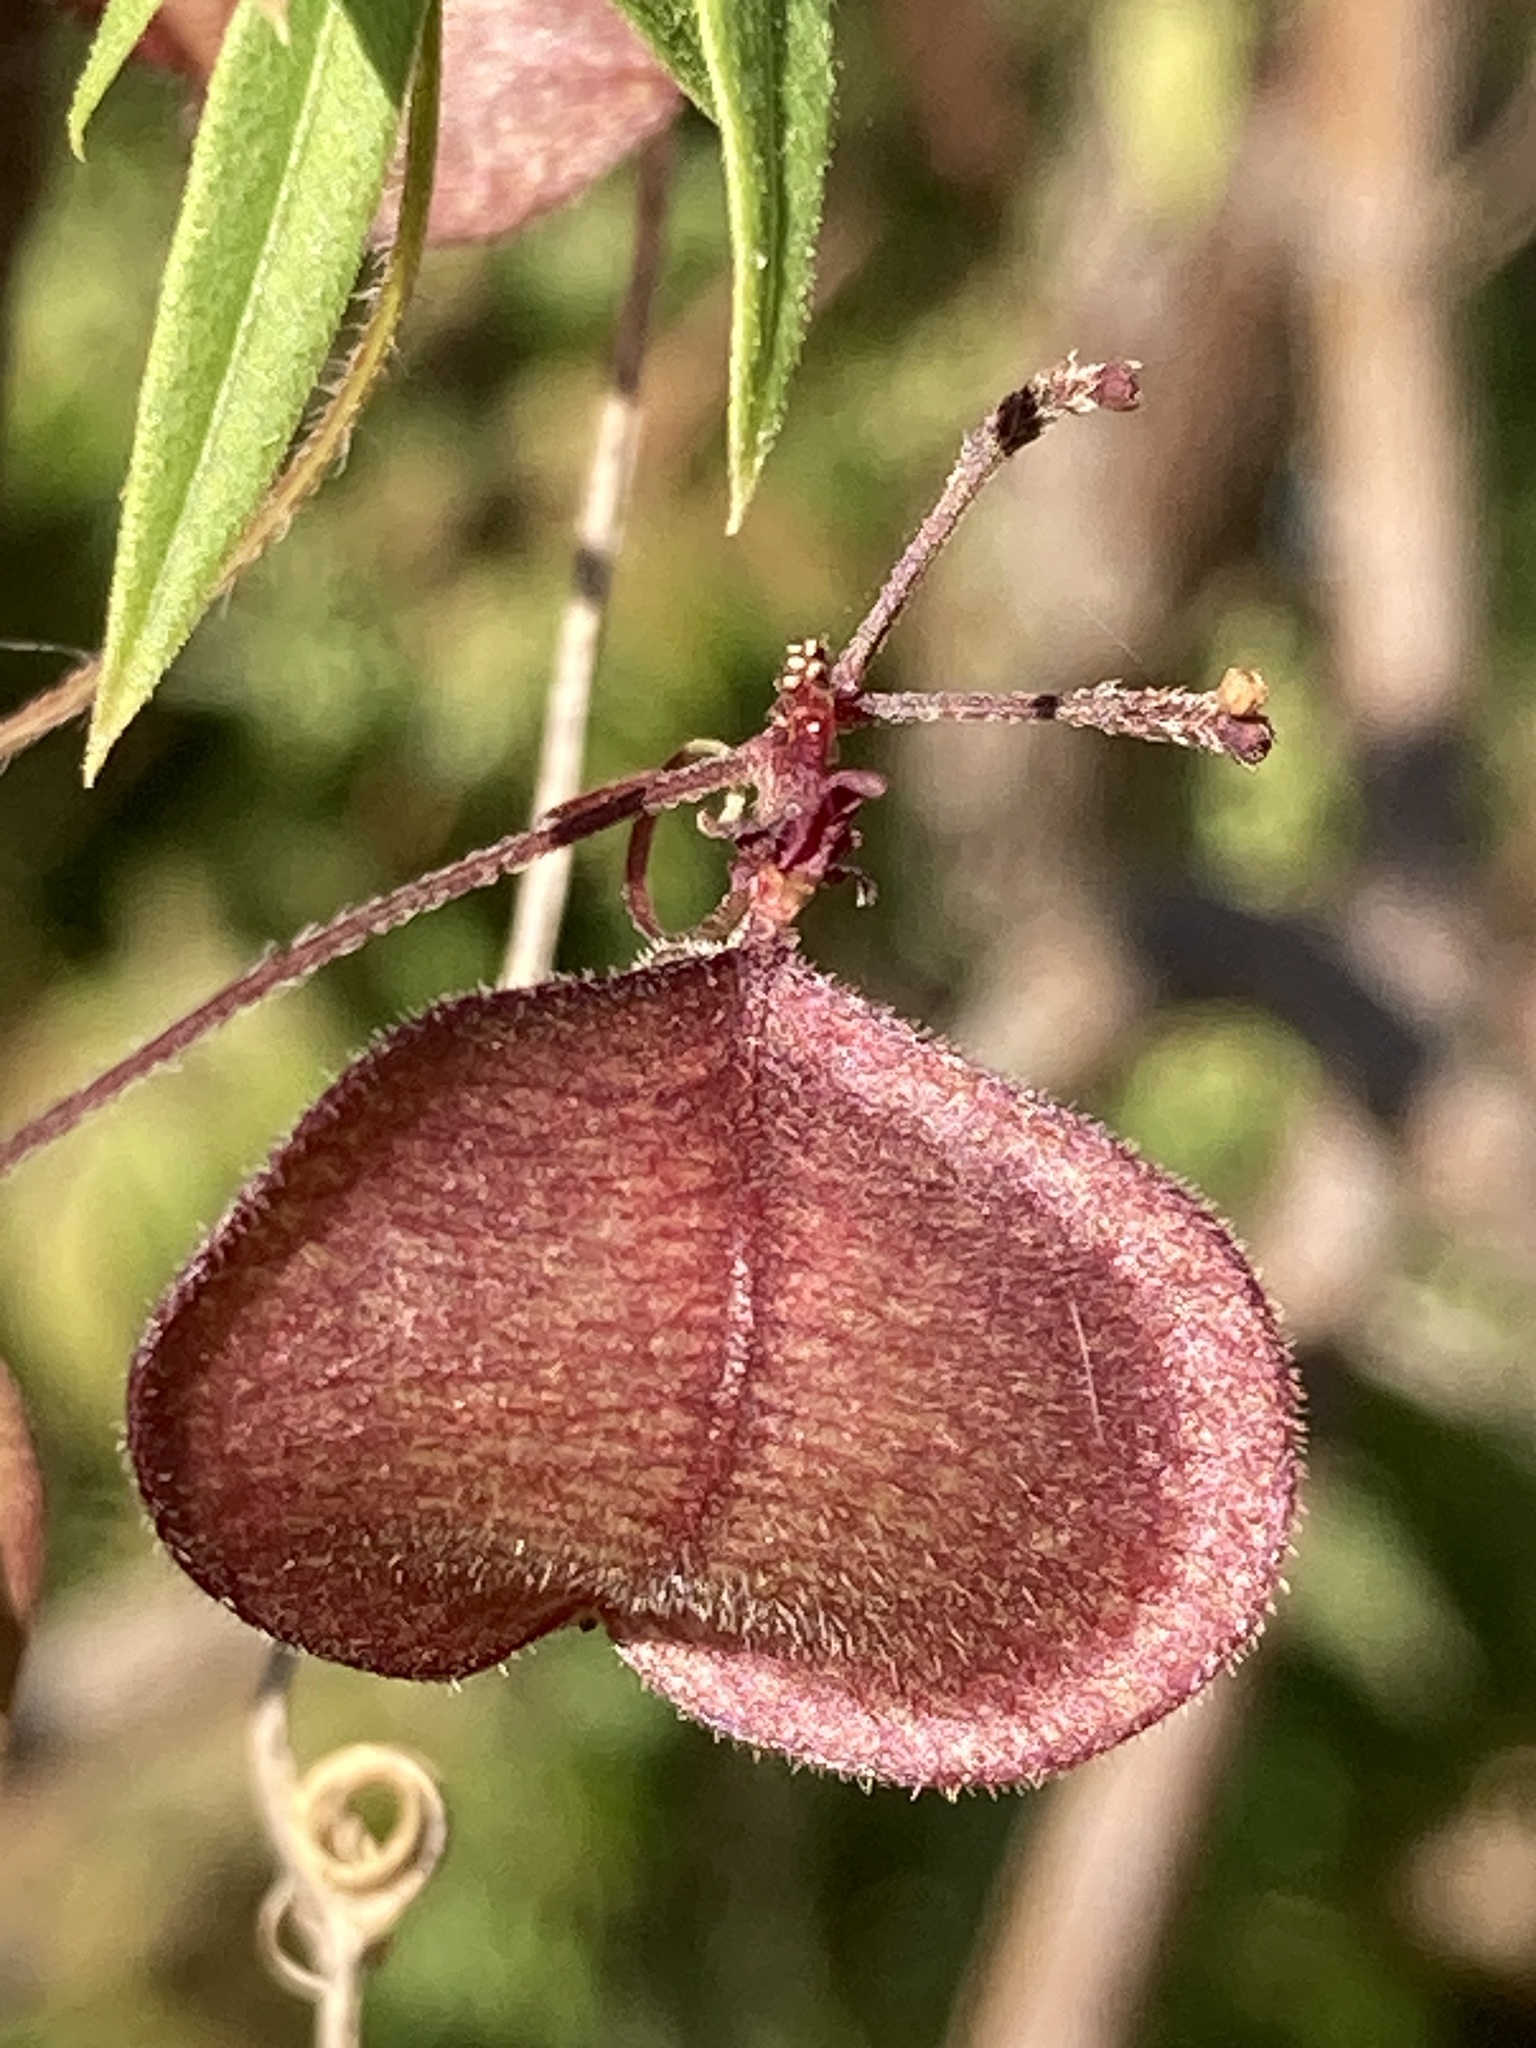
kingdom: Plantae
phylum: Tracheophyta
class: Magnoliopsida
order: Sapindales
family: Sapindaceae
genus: Cardiospermum
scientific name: Cardiospermum halicacabum
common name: Balloon vine
